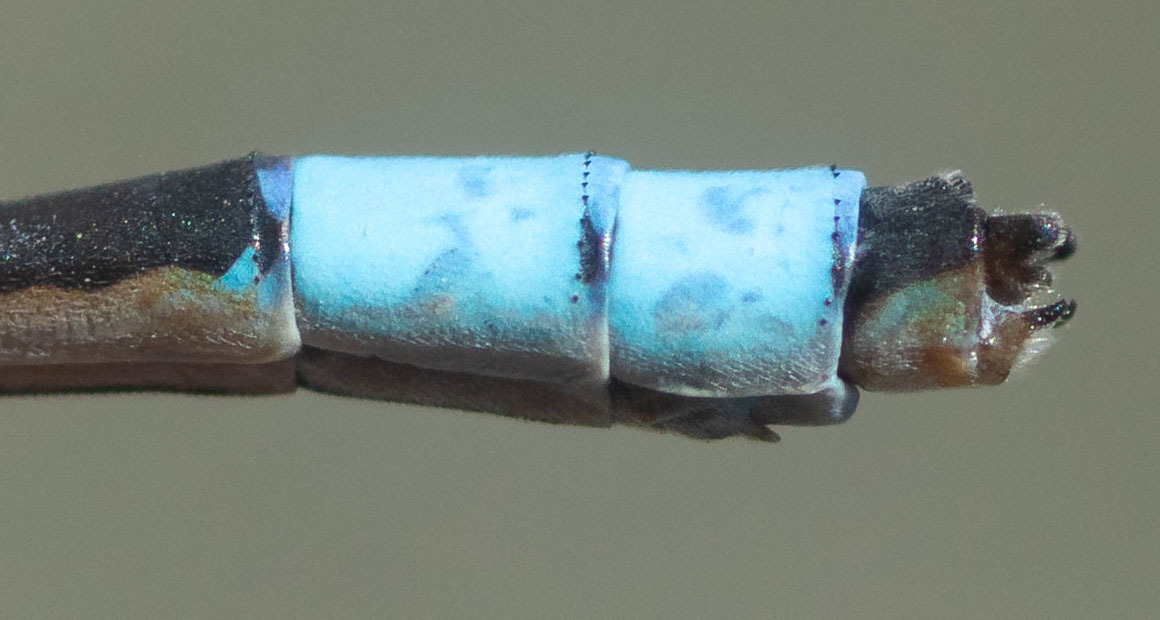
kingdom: Animalia
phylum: Arthropoda
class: Insecta
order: Odonata
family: Coenagrionidae
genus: Enallagma
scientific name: Enallagma praevarum
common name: Arroyo bluet
